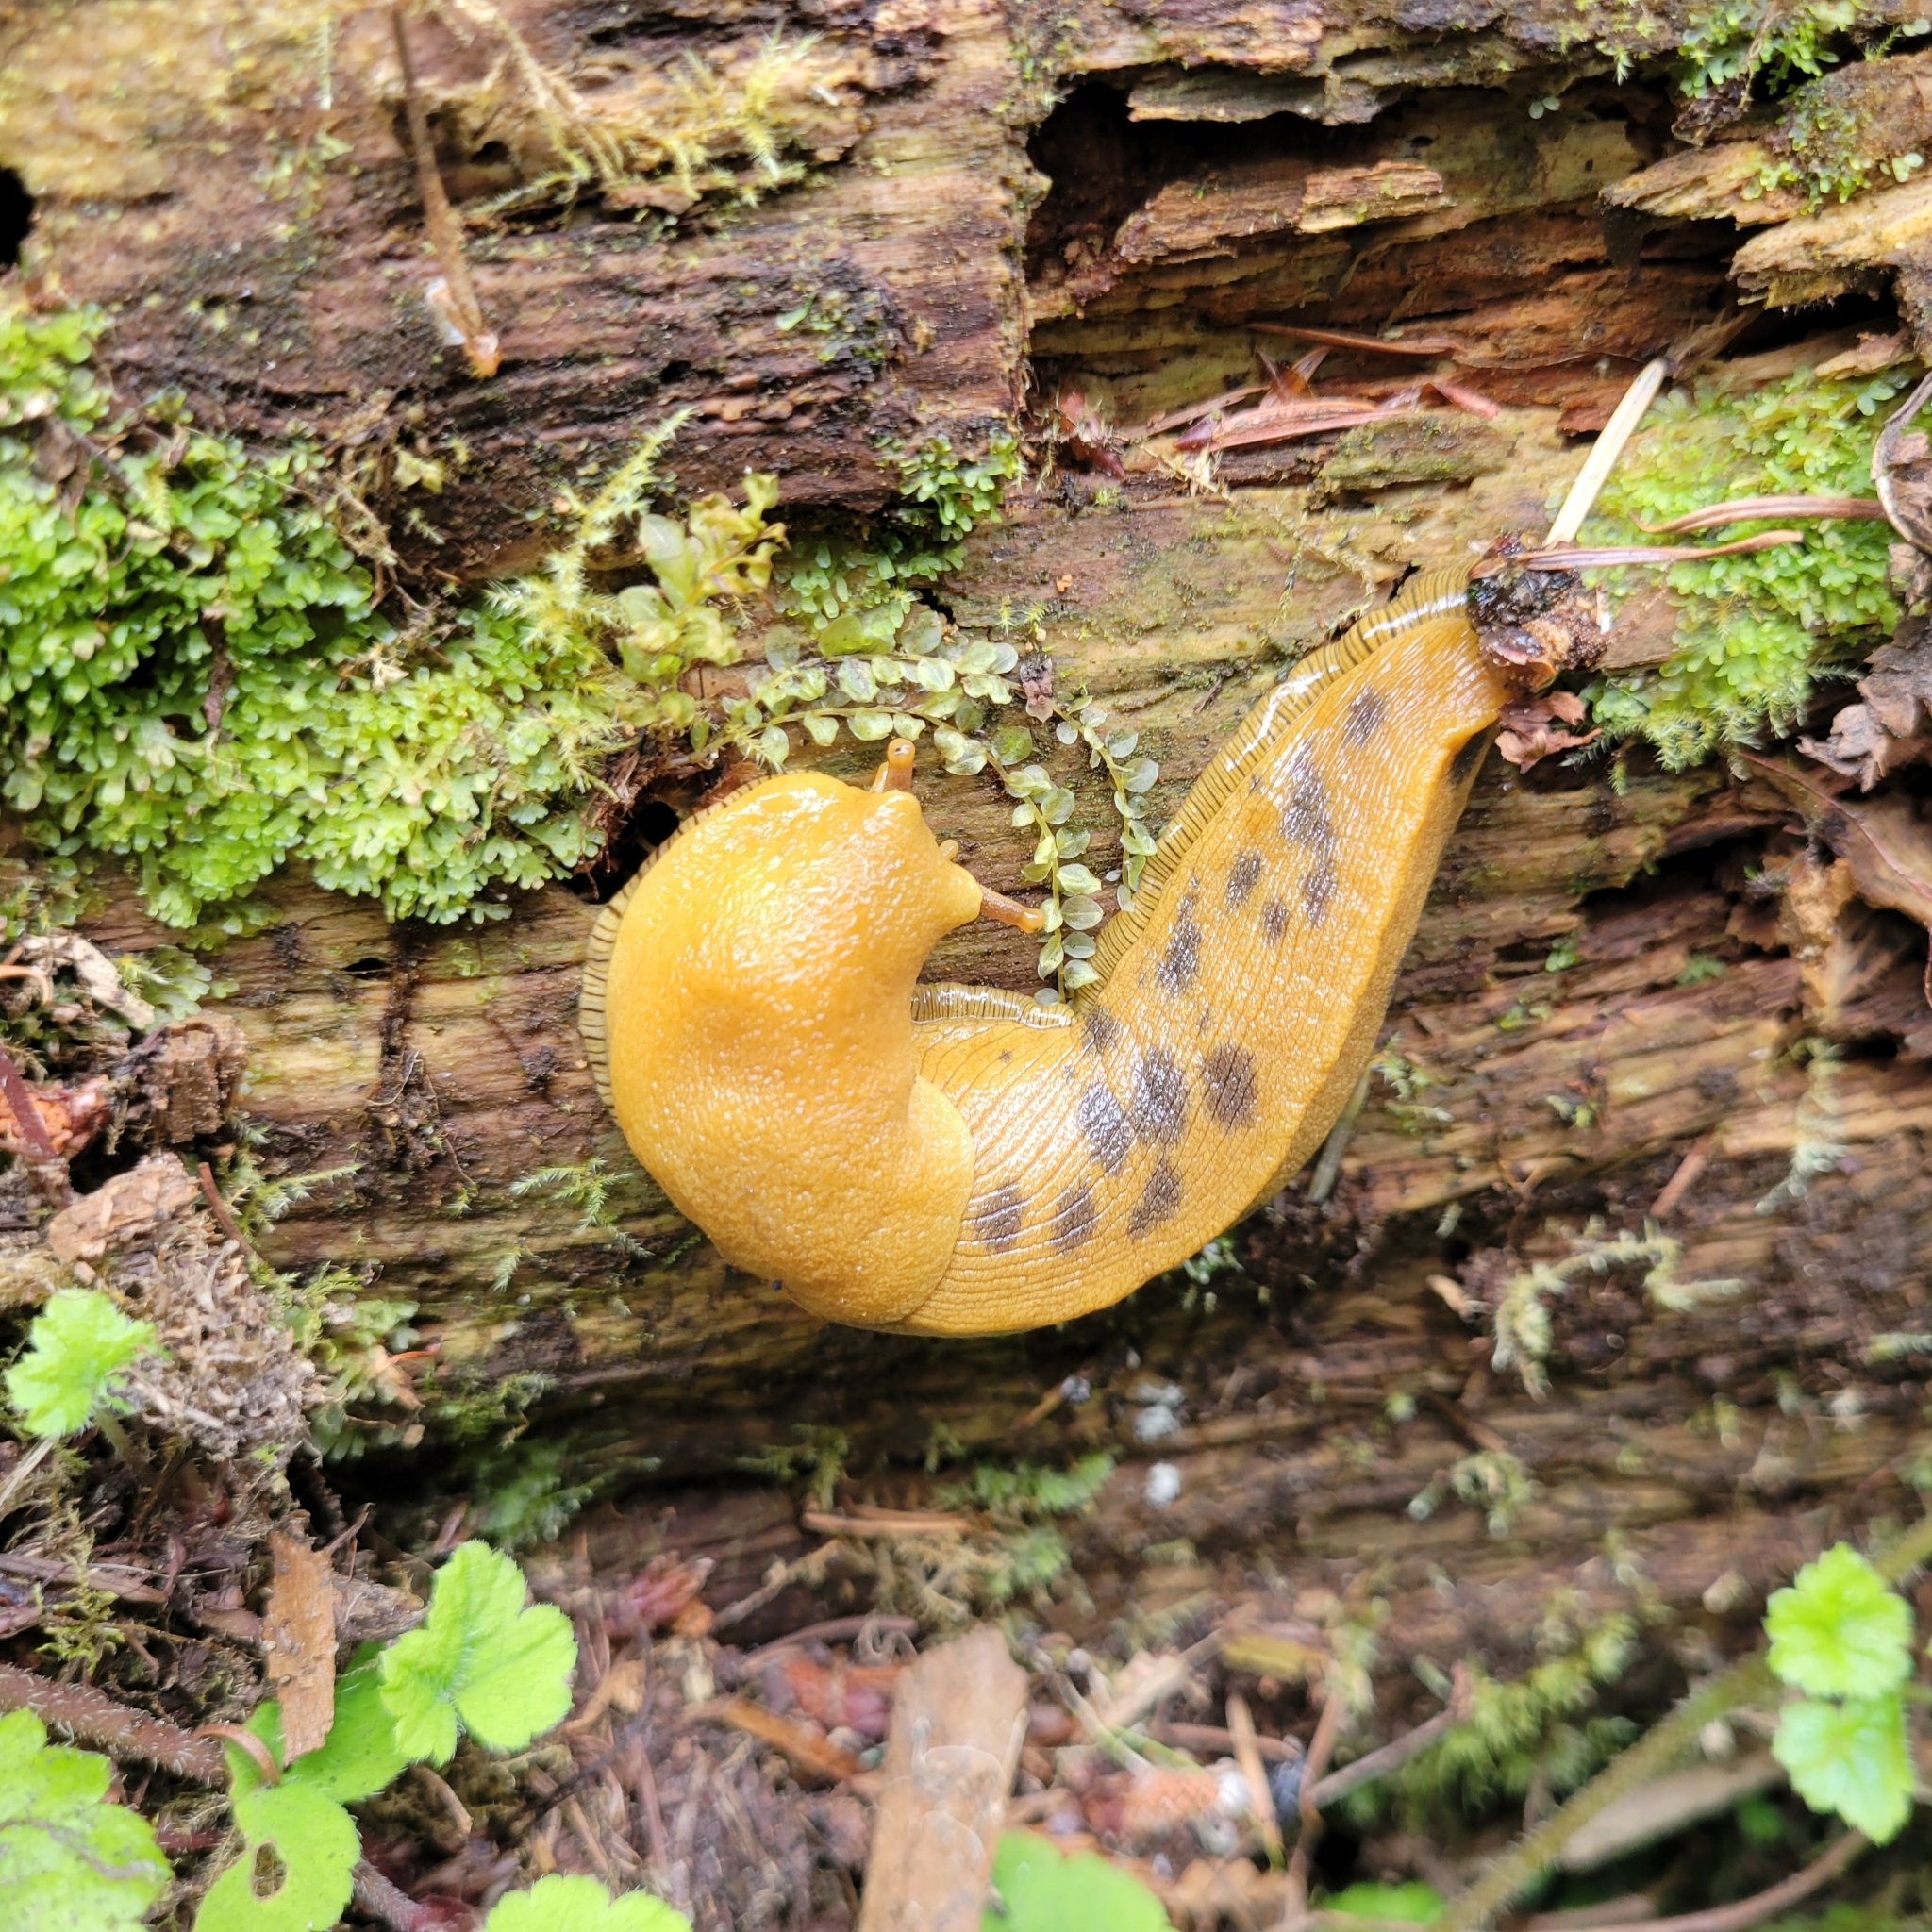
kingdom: Animalia
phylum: Mollusca
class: Gastropoda
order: Stylommatophora
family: Ariolimacidae
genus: Ariolimax
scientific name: Ariolimax buttoni
